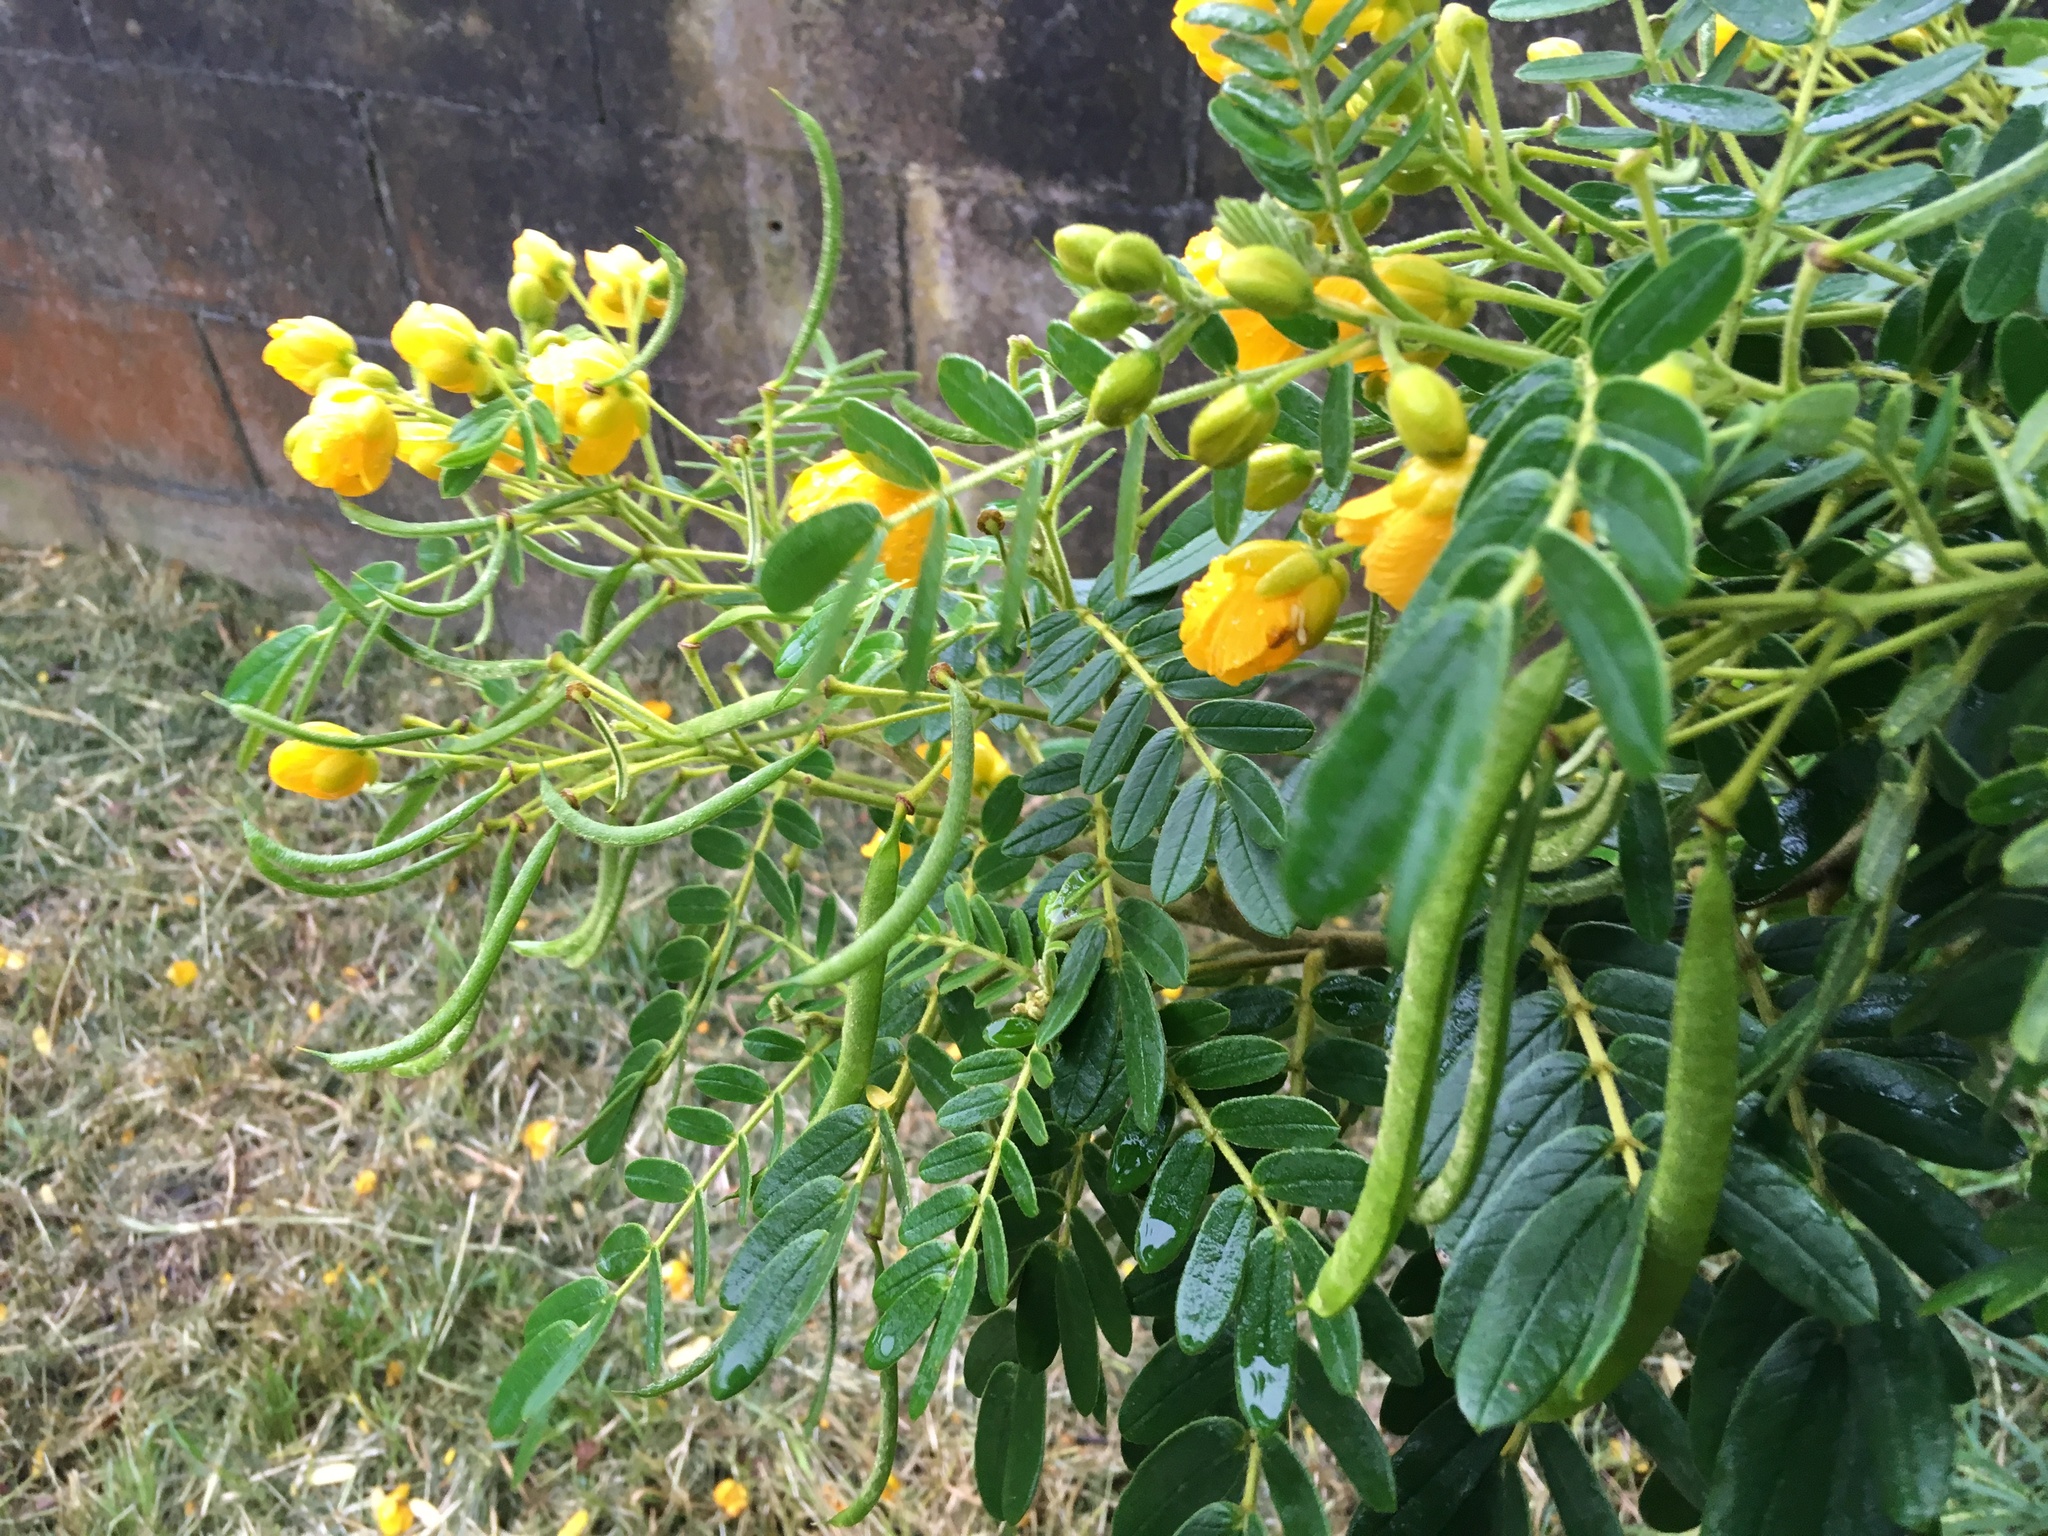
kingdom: Plantae
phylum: Tracheophyta
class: Magnoliopsida
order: Fabales
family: Fabaceae
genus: Senna
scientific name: Senna multiglandulosa
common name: Glandular senna
